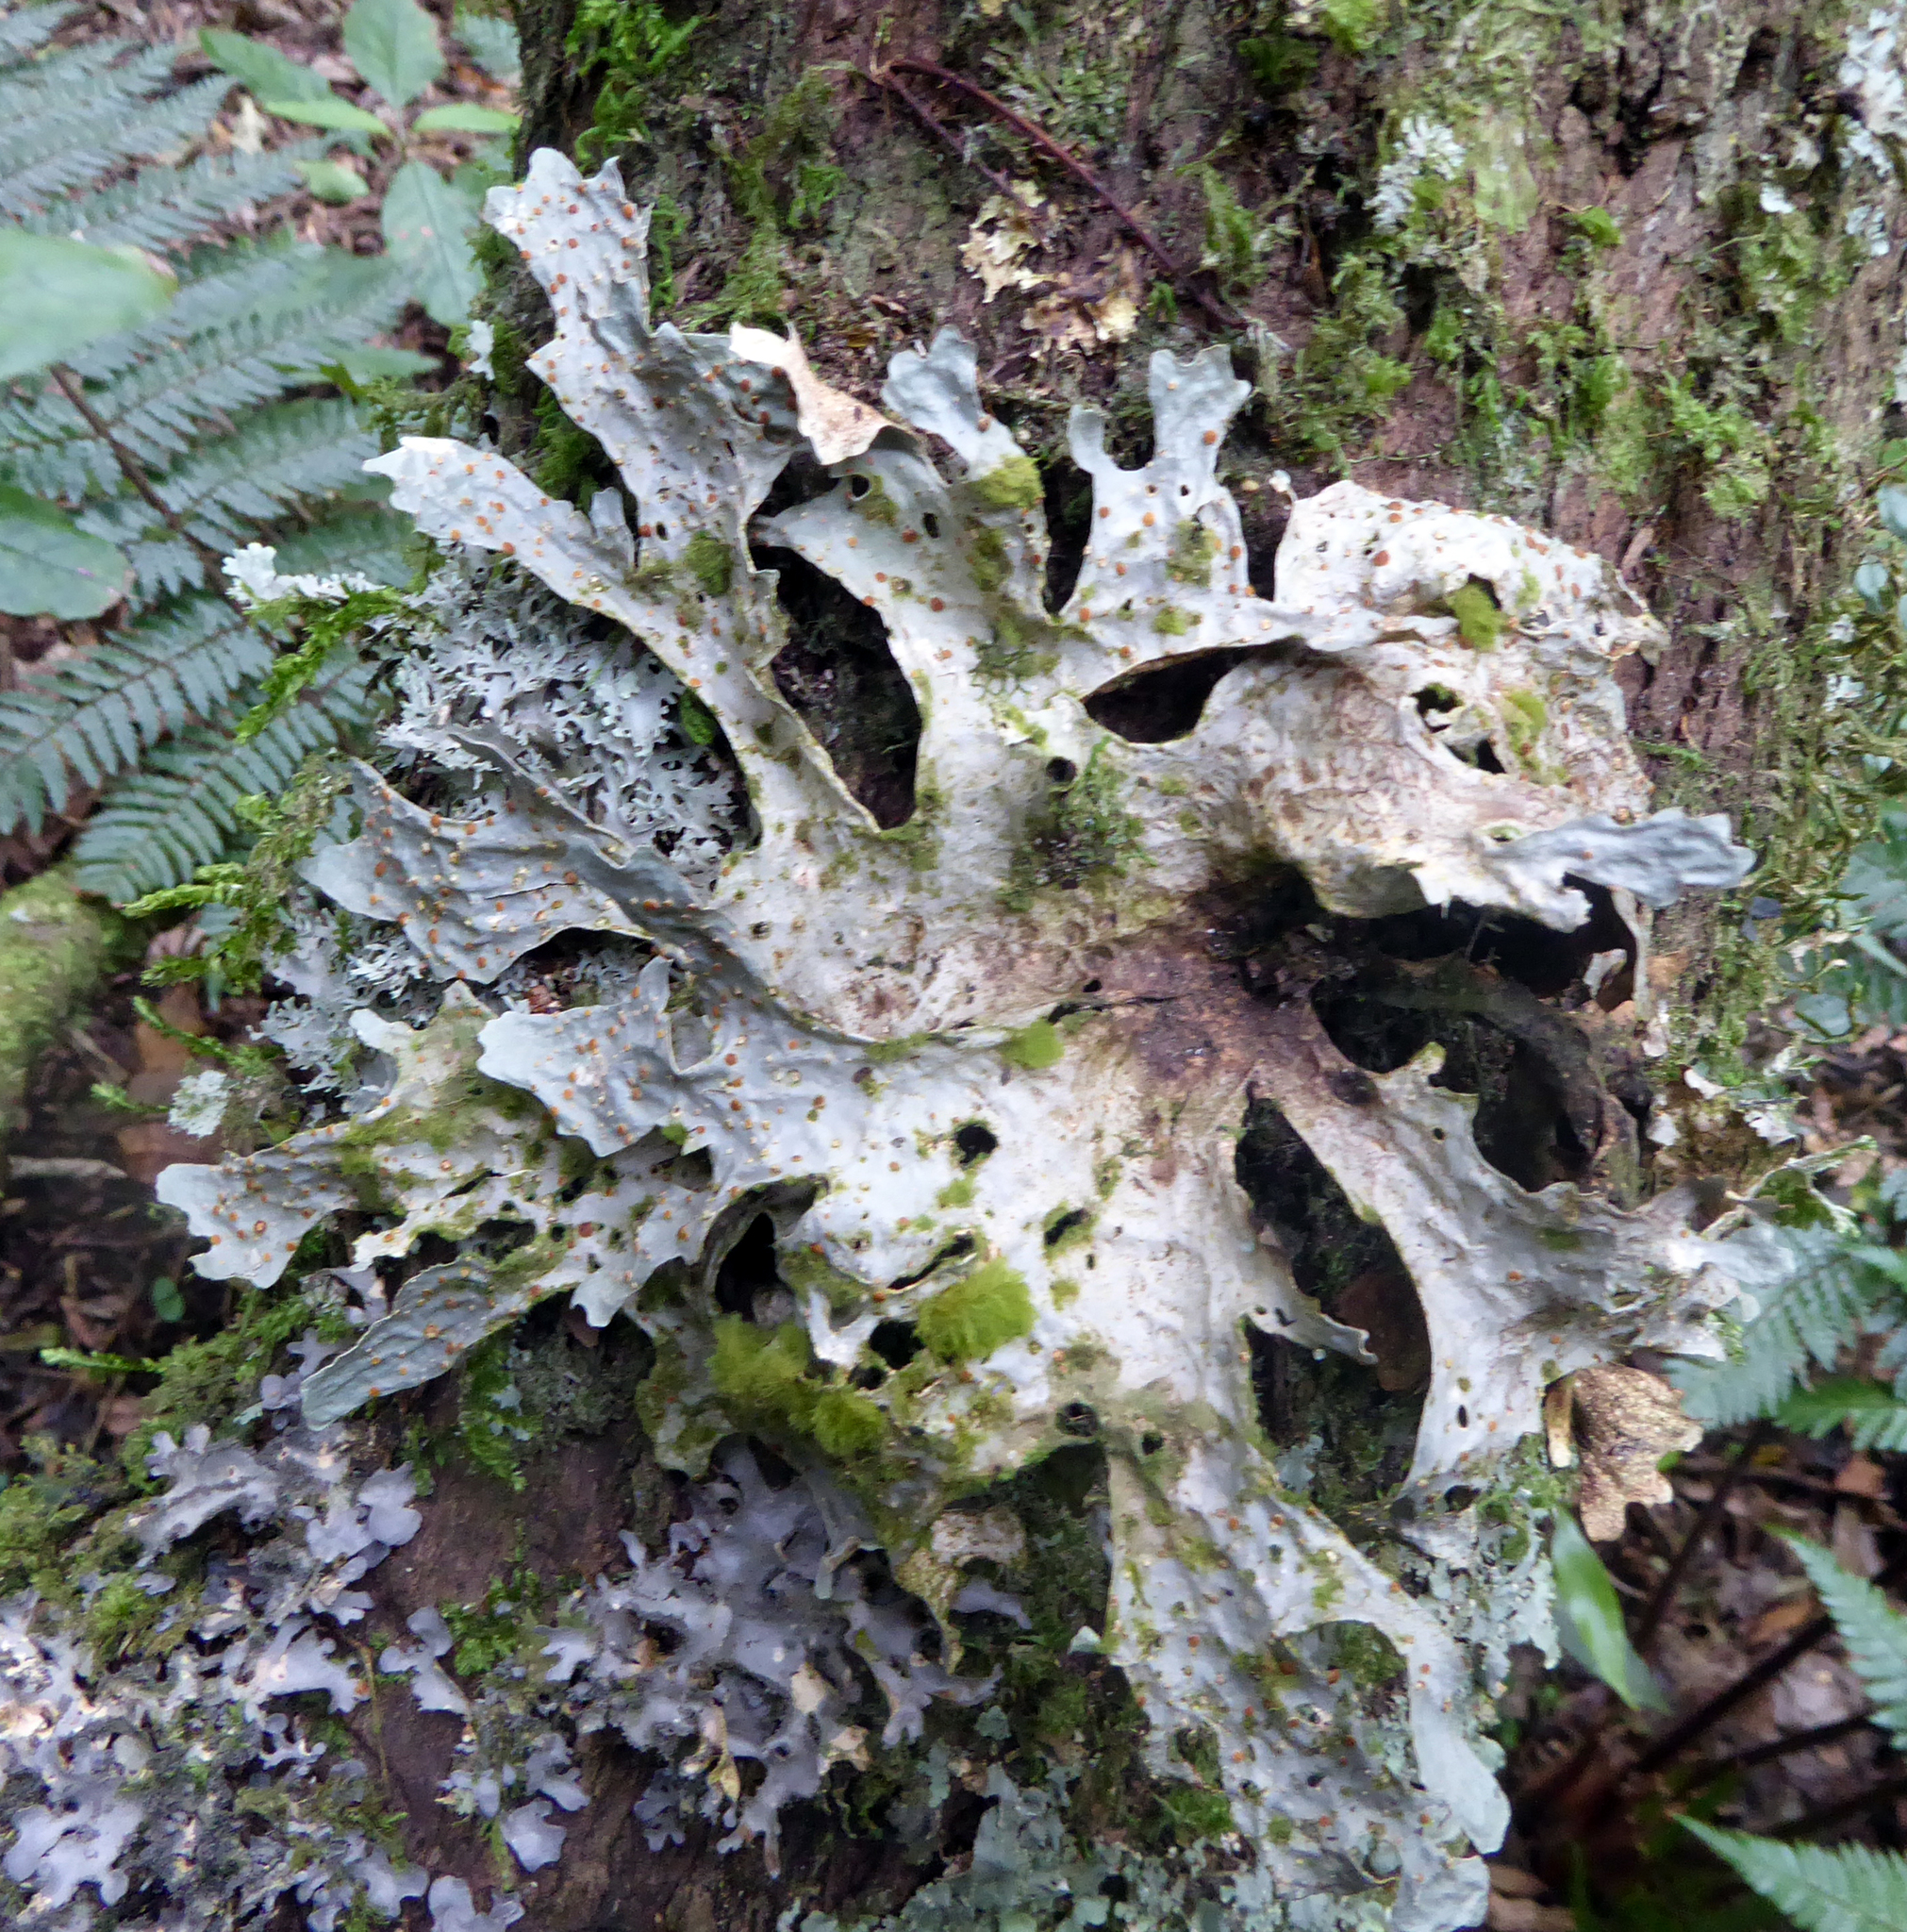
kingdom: Fungi
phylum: Ascomycota
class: Lecanoromycetes
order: Peltigerales
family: Lobariaceae
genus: Sticta
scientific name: Sticta latifrons
